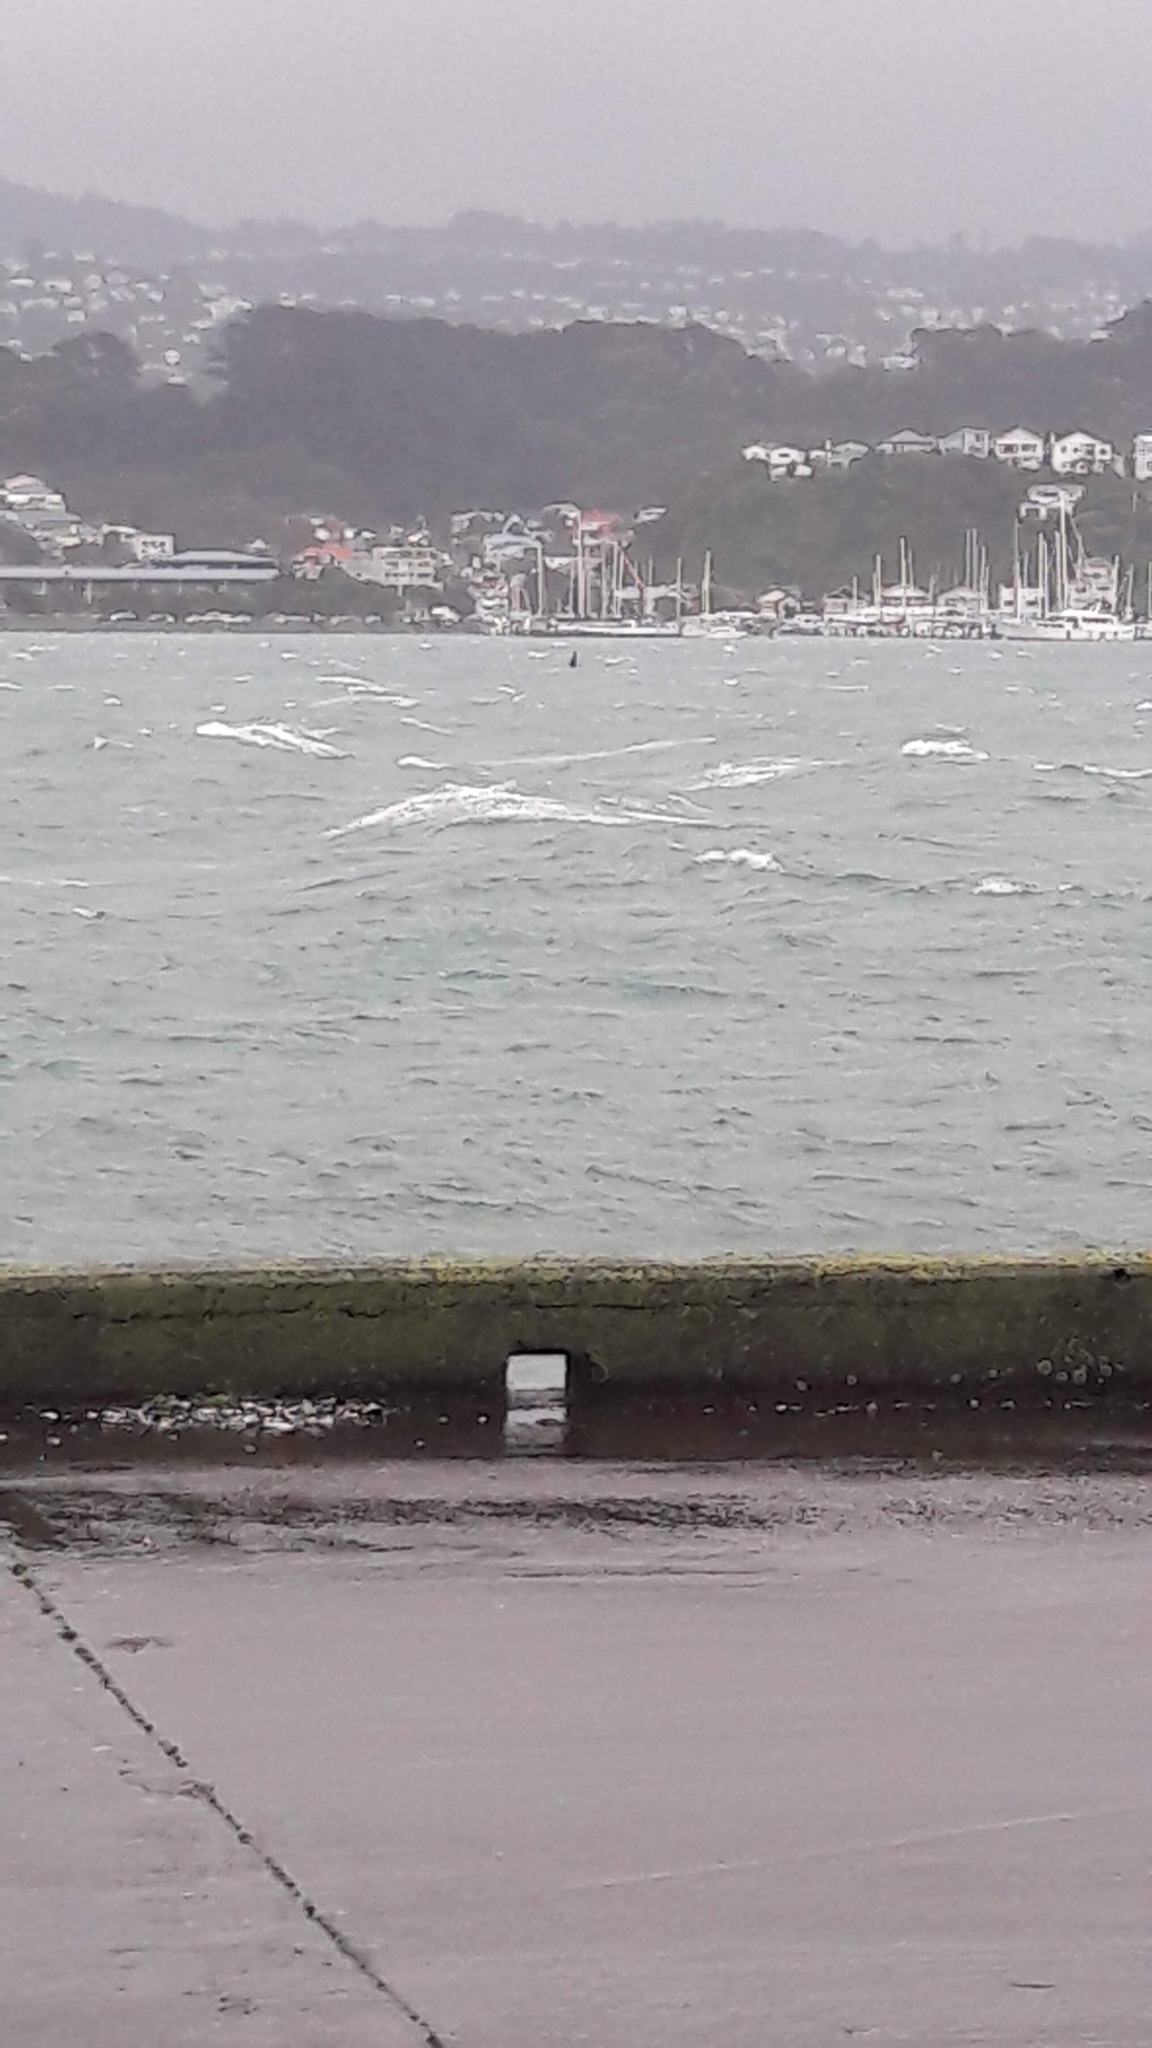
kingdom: Animalia
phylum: Chordata
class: Mammalia
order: Cetacea
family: Balaenidae
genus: Eubalaena
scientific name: Eubalaena australis
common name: Southern right whale
